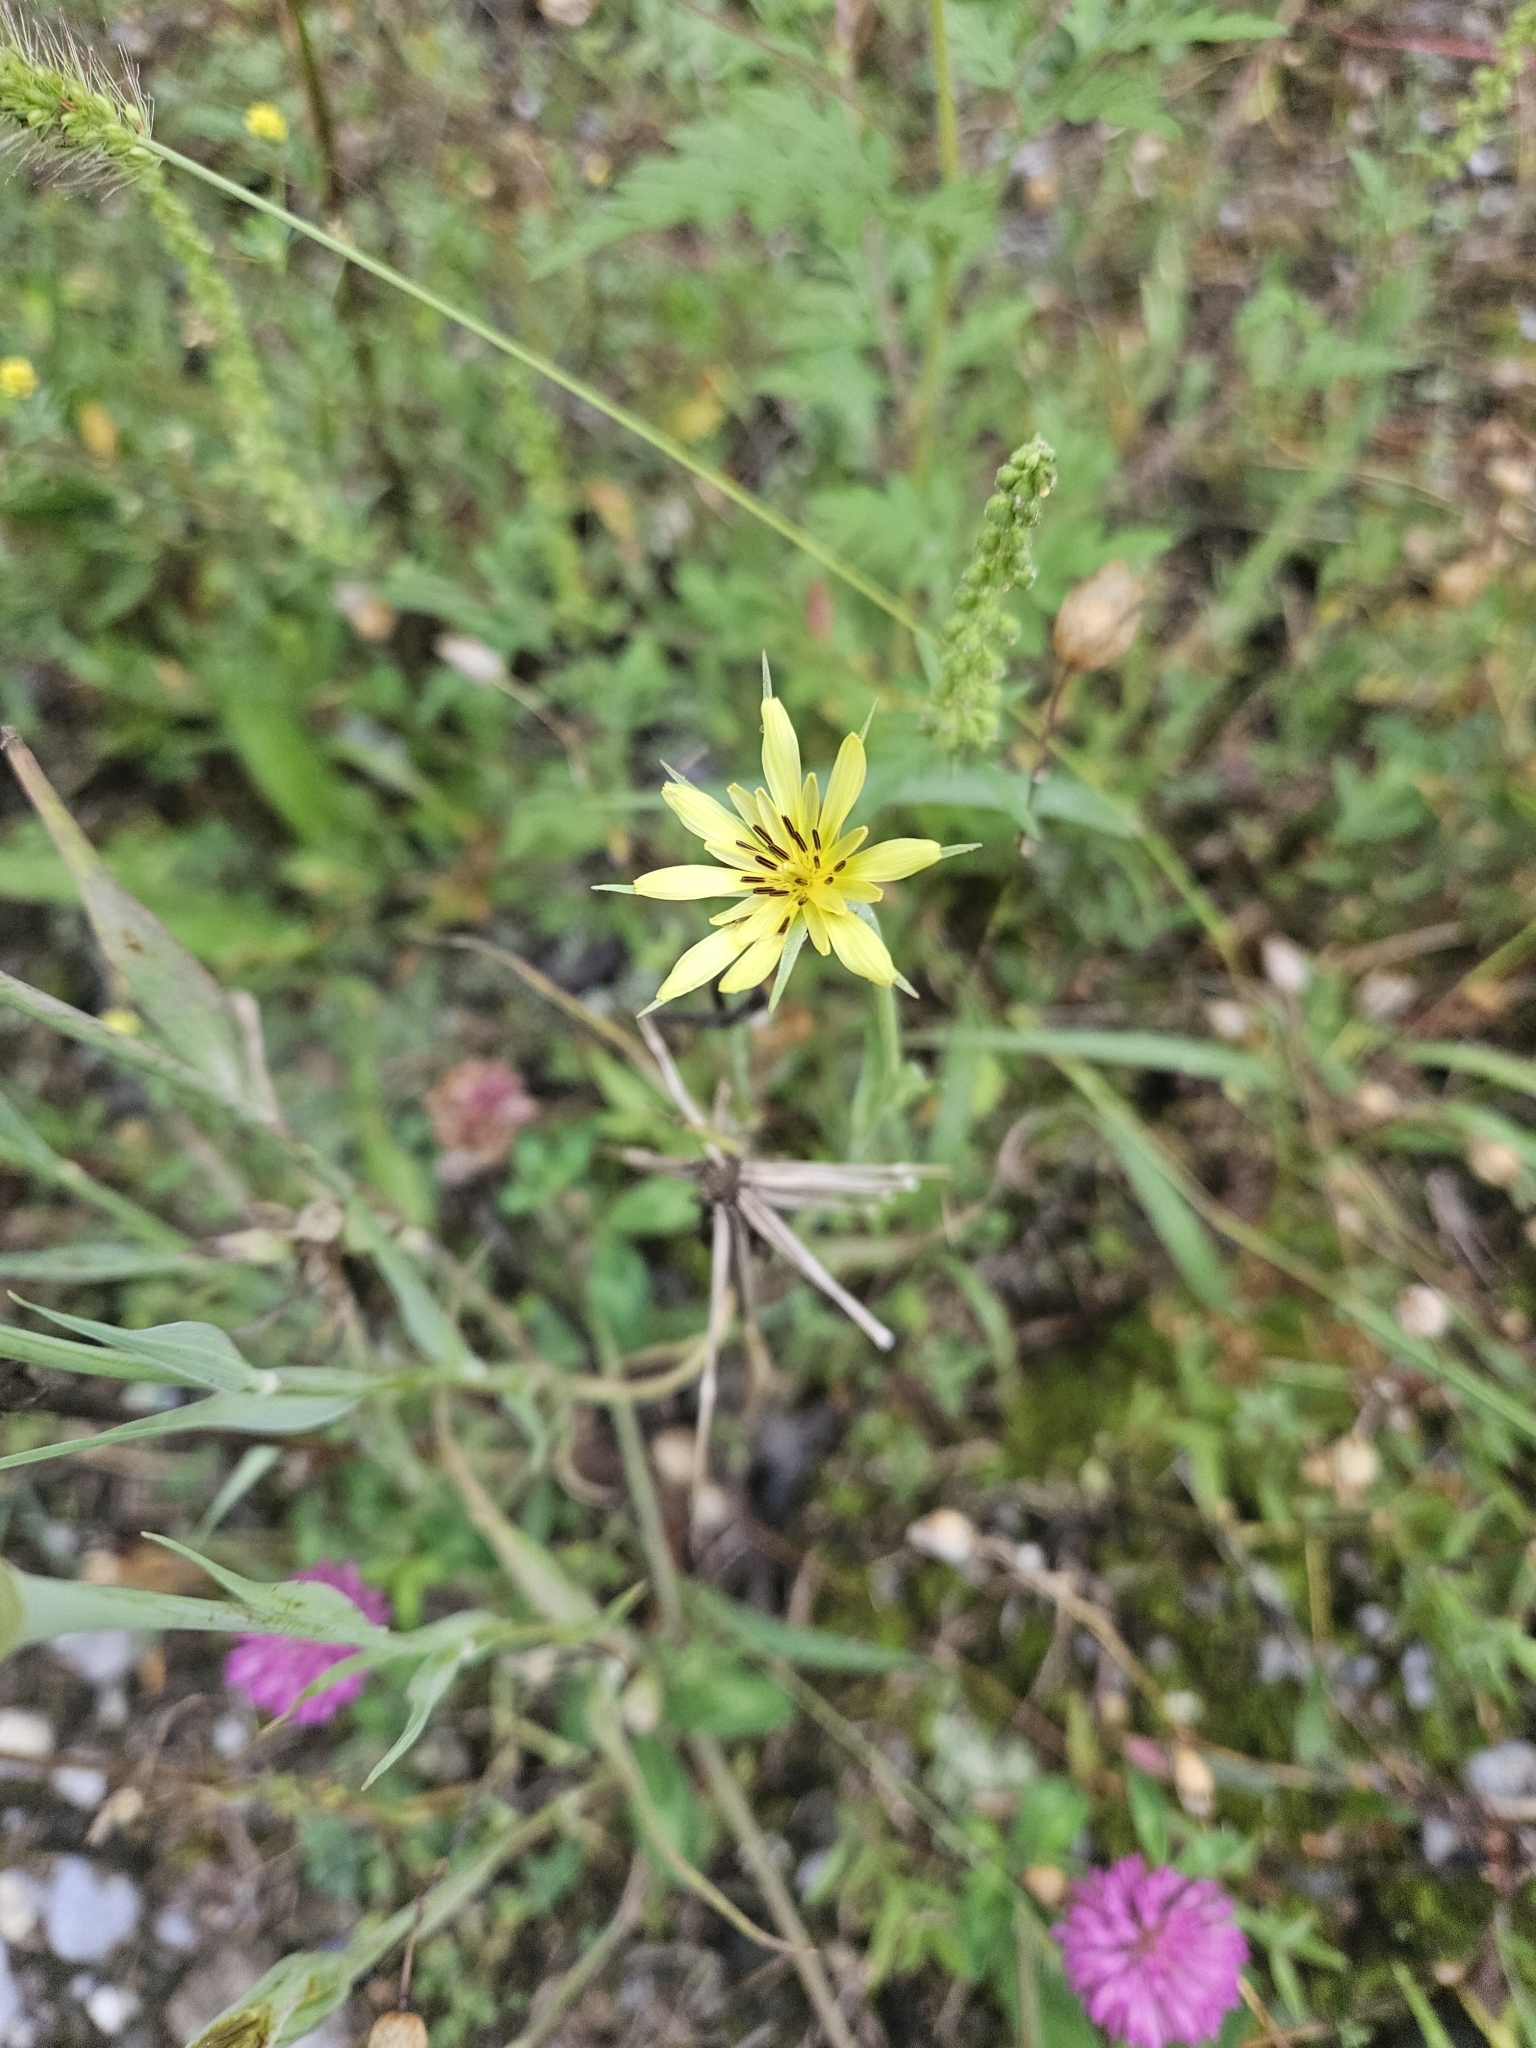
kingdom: Plantae
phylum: Tracheophyta
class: Magnoliopsida
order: Asterales
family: Asteraceae
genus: Tragopogon
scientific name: Tragopogon dubius
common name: Yellow salsify
